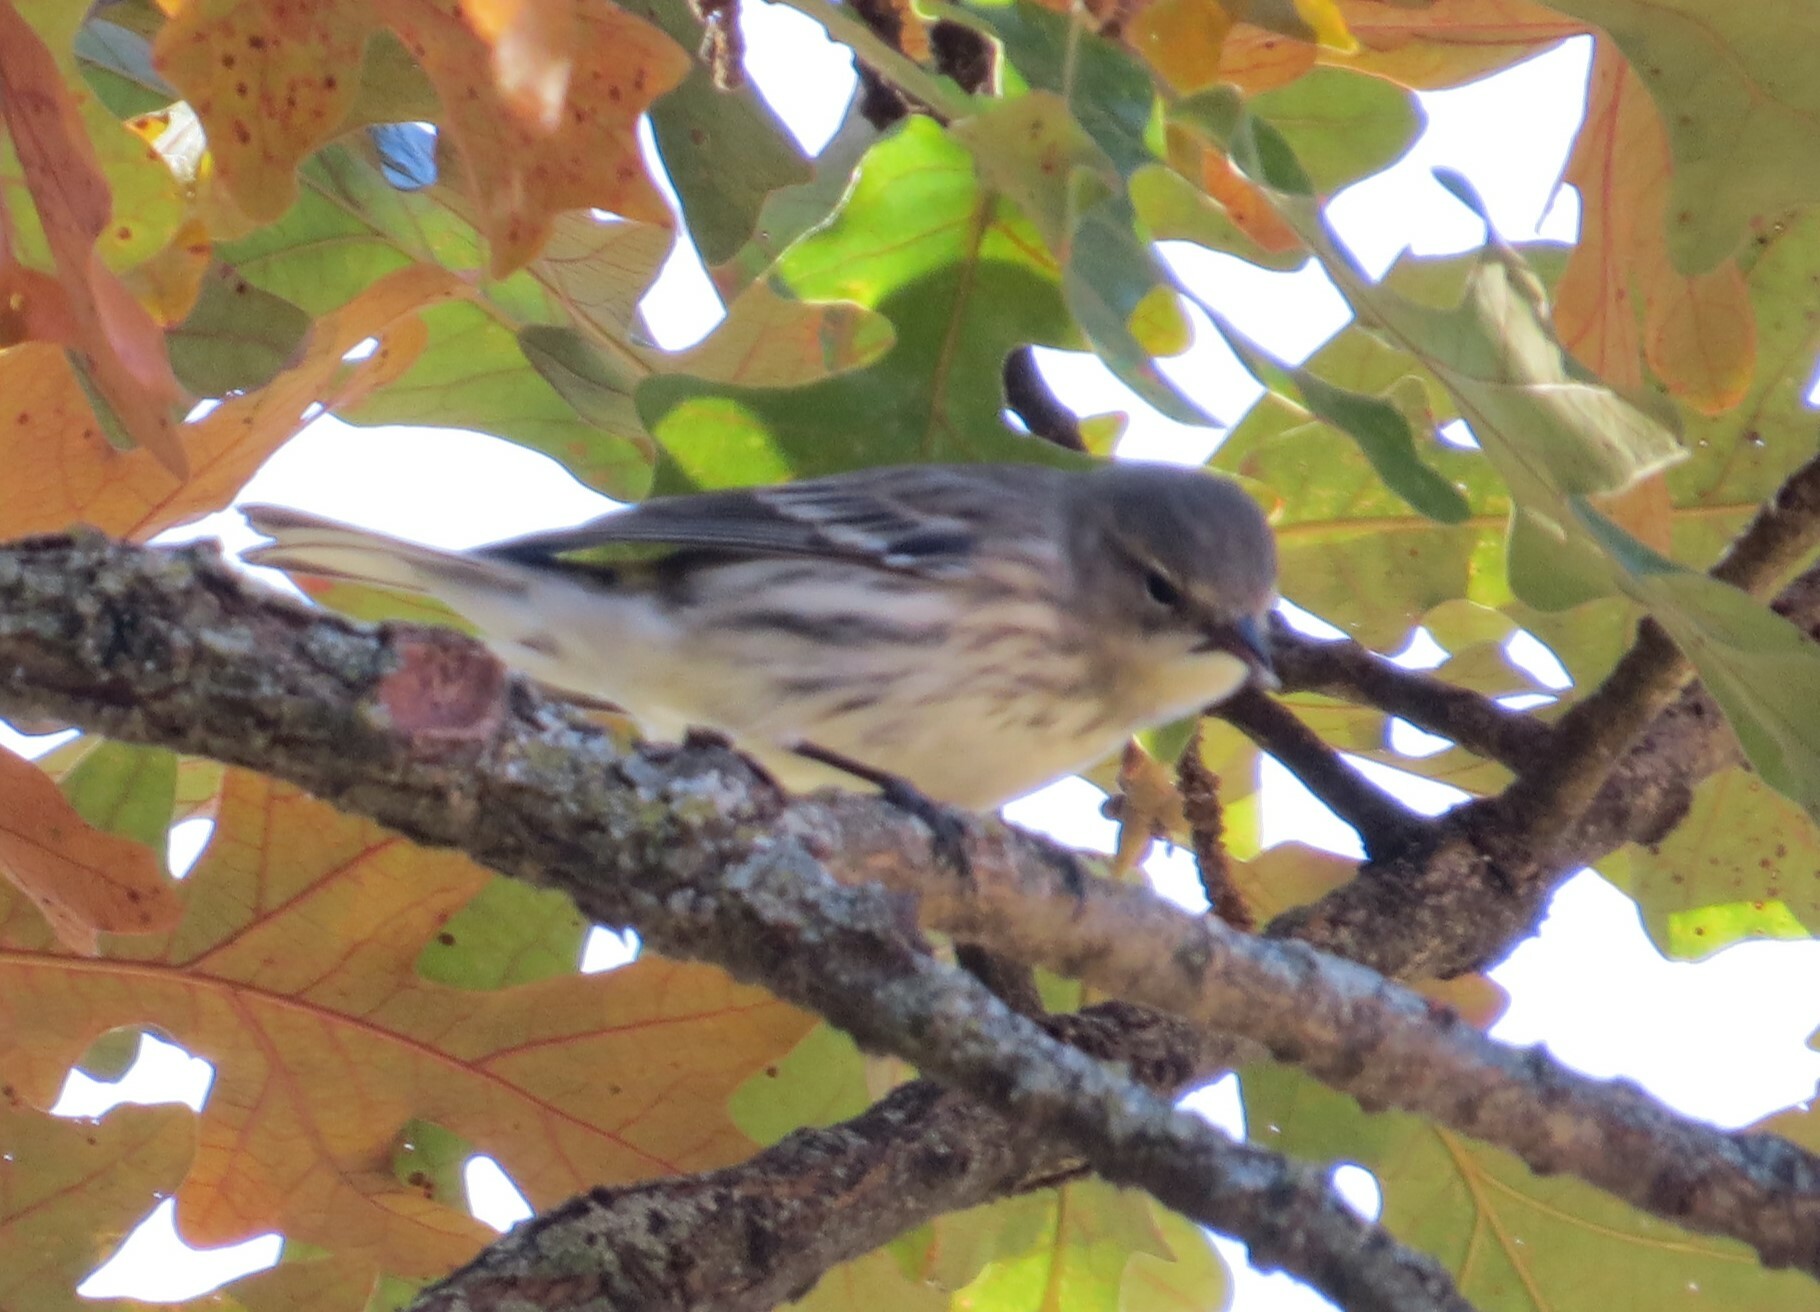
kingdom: Animalia
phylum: Chordata
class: Aves
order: Passeriformes
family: Parulidae
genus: Setophaga
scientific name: Setophaga coronata
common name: Myrtle warbler
